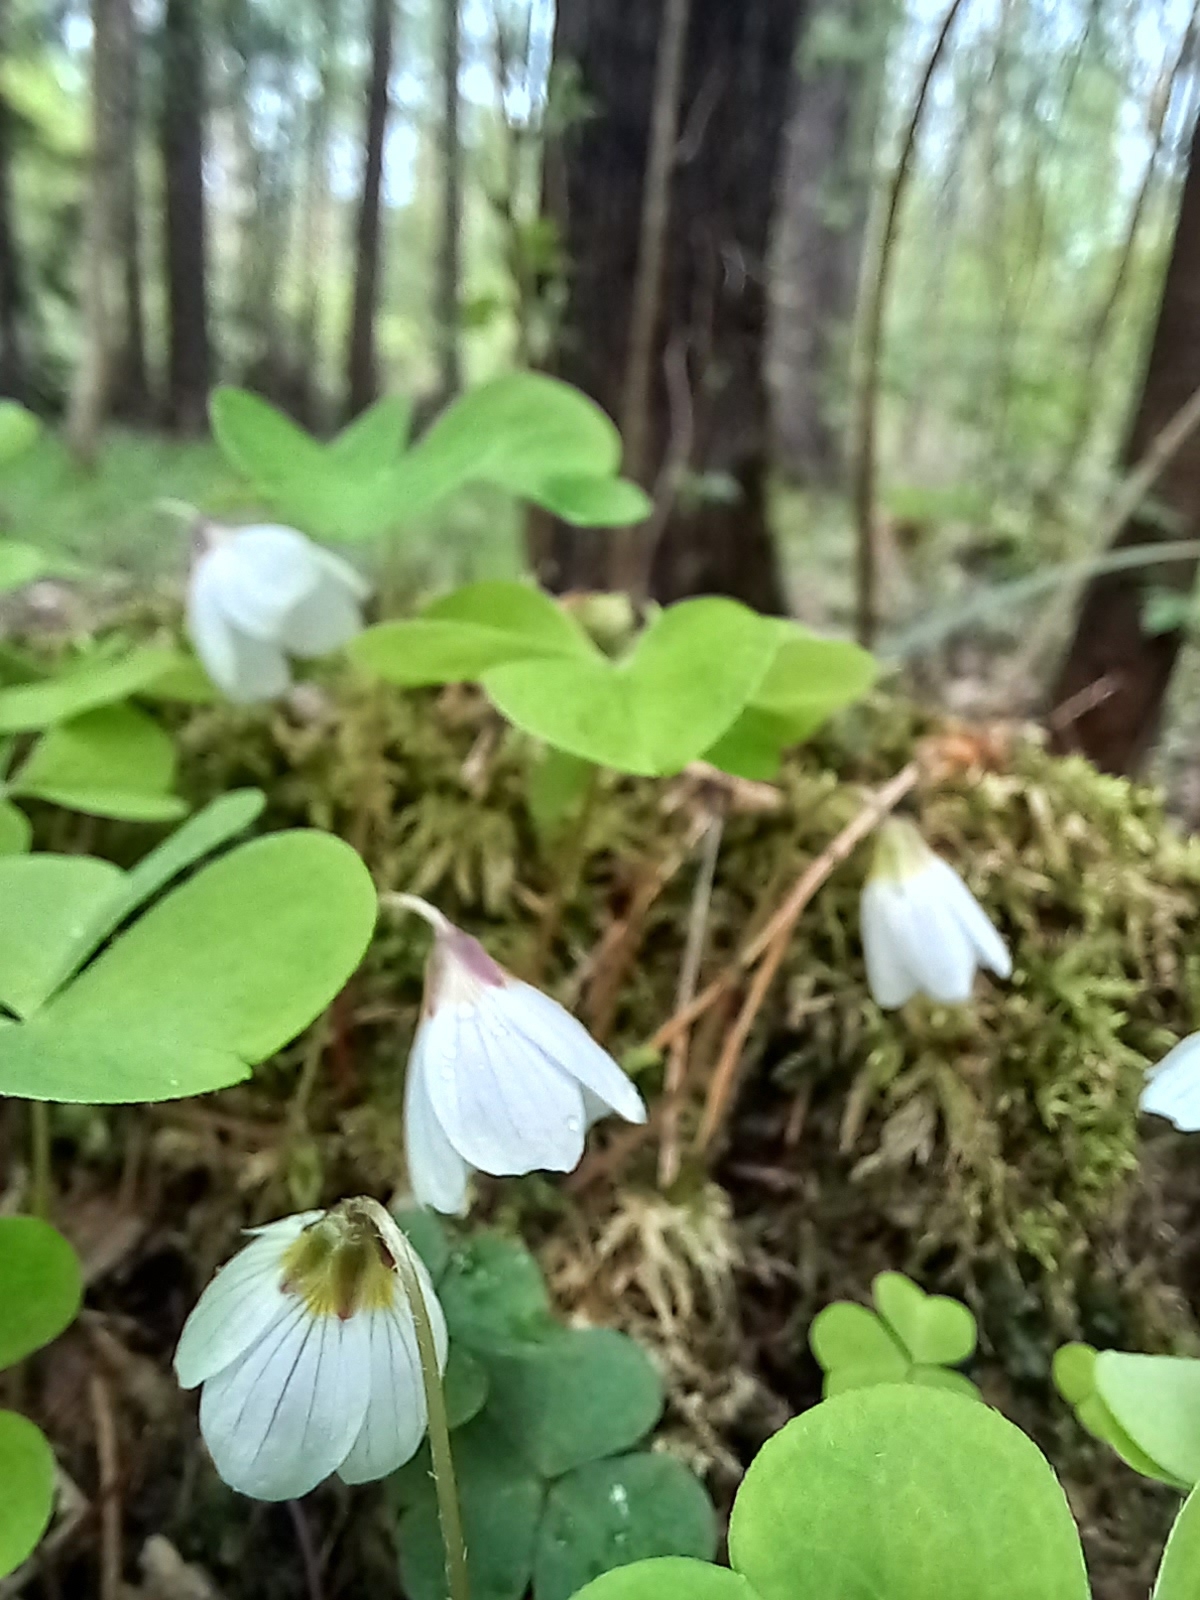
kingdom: Plantae
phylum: Tracheophyta
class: Magnoliopsida
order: Oxalidales
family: Oxalidaceae
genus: Oxalis
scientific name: Oxalis acetosella
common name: Wood-sorrel
